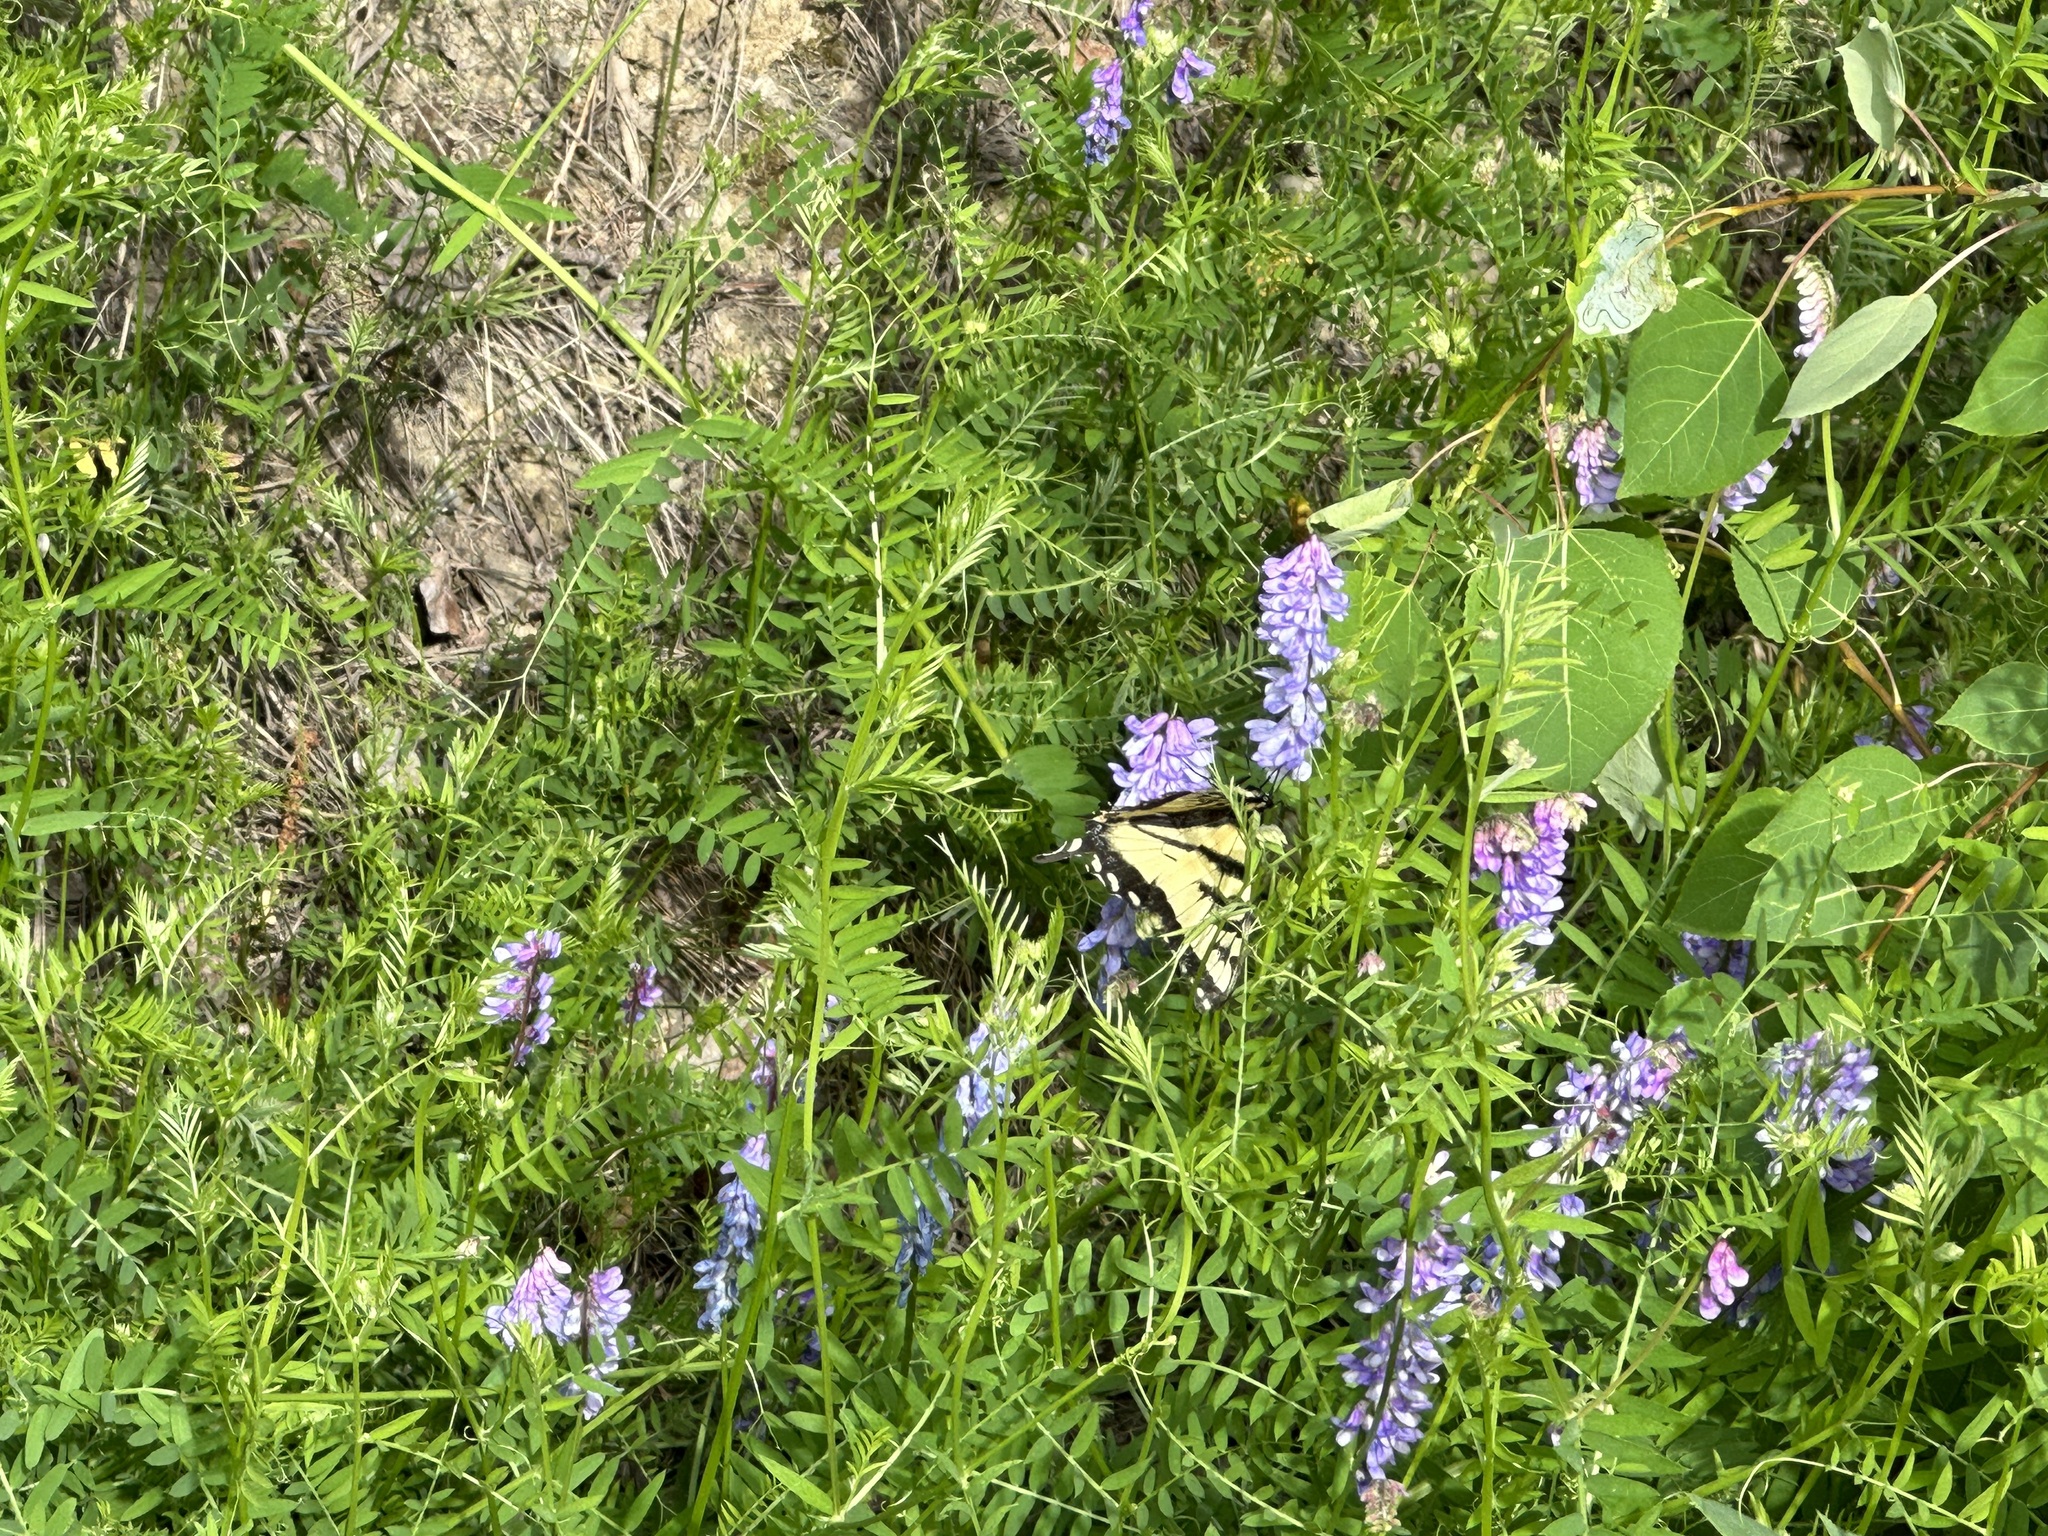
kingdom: Animalia
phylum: Arthropoda
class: Insecta
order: Lepidoptera
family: Papilionidae
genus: Papilio
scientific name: Papilio canadensis
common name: Canadian tiger swallowtail
